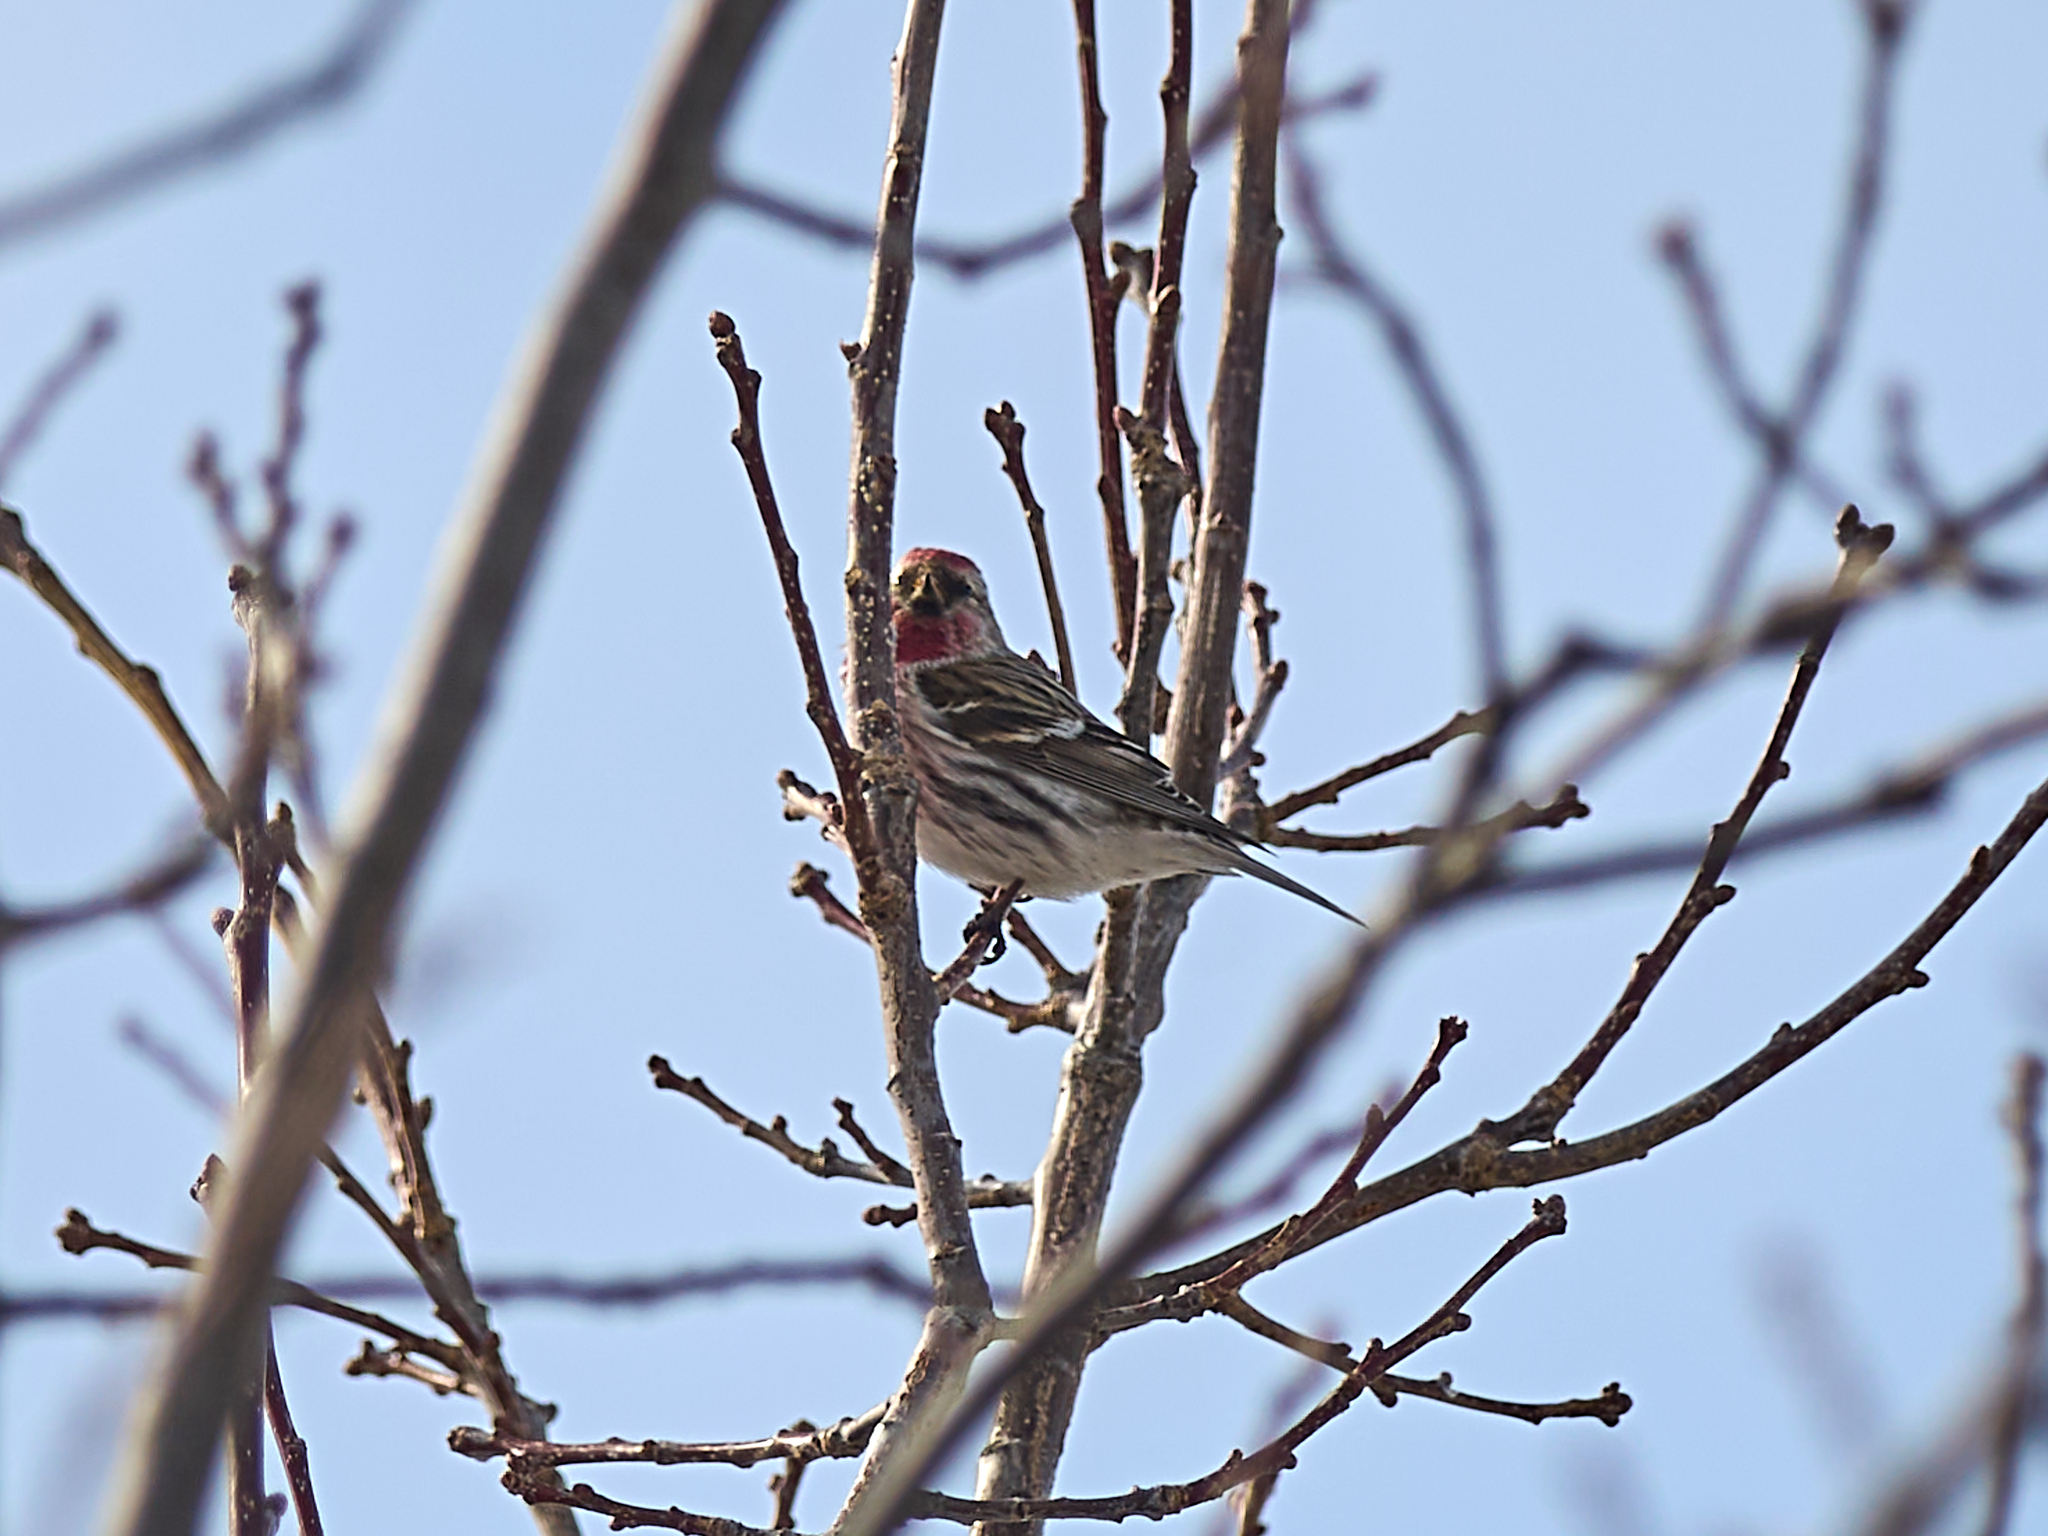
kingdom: Animalia
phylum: Chordata
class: Aves
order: Passeriformes
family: Fringillidae
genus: Acanthis
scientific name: Acanthis flammea
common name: Common redpoll
